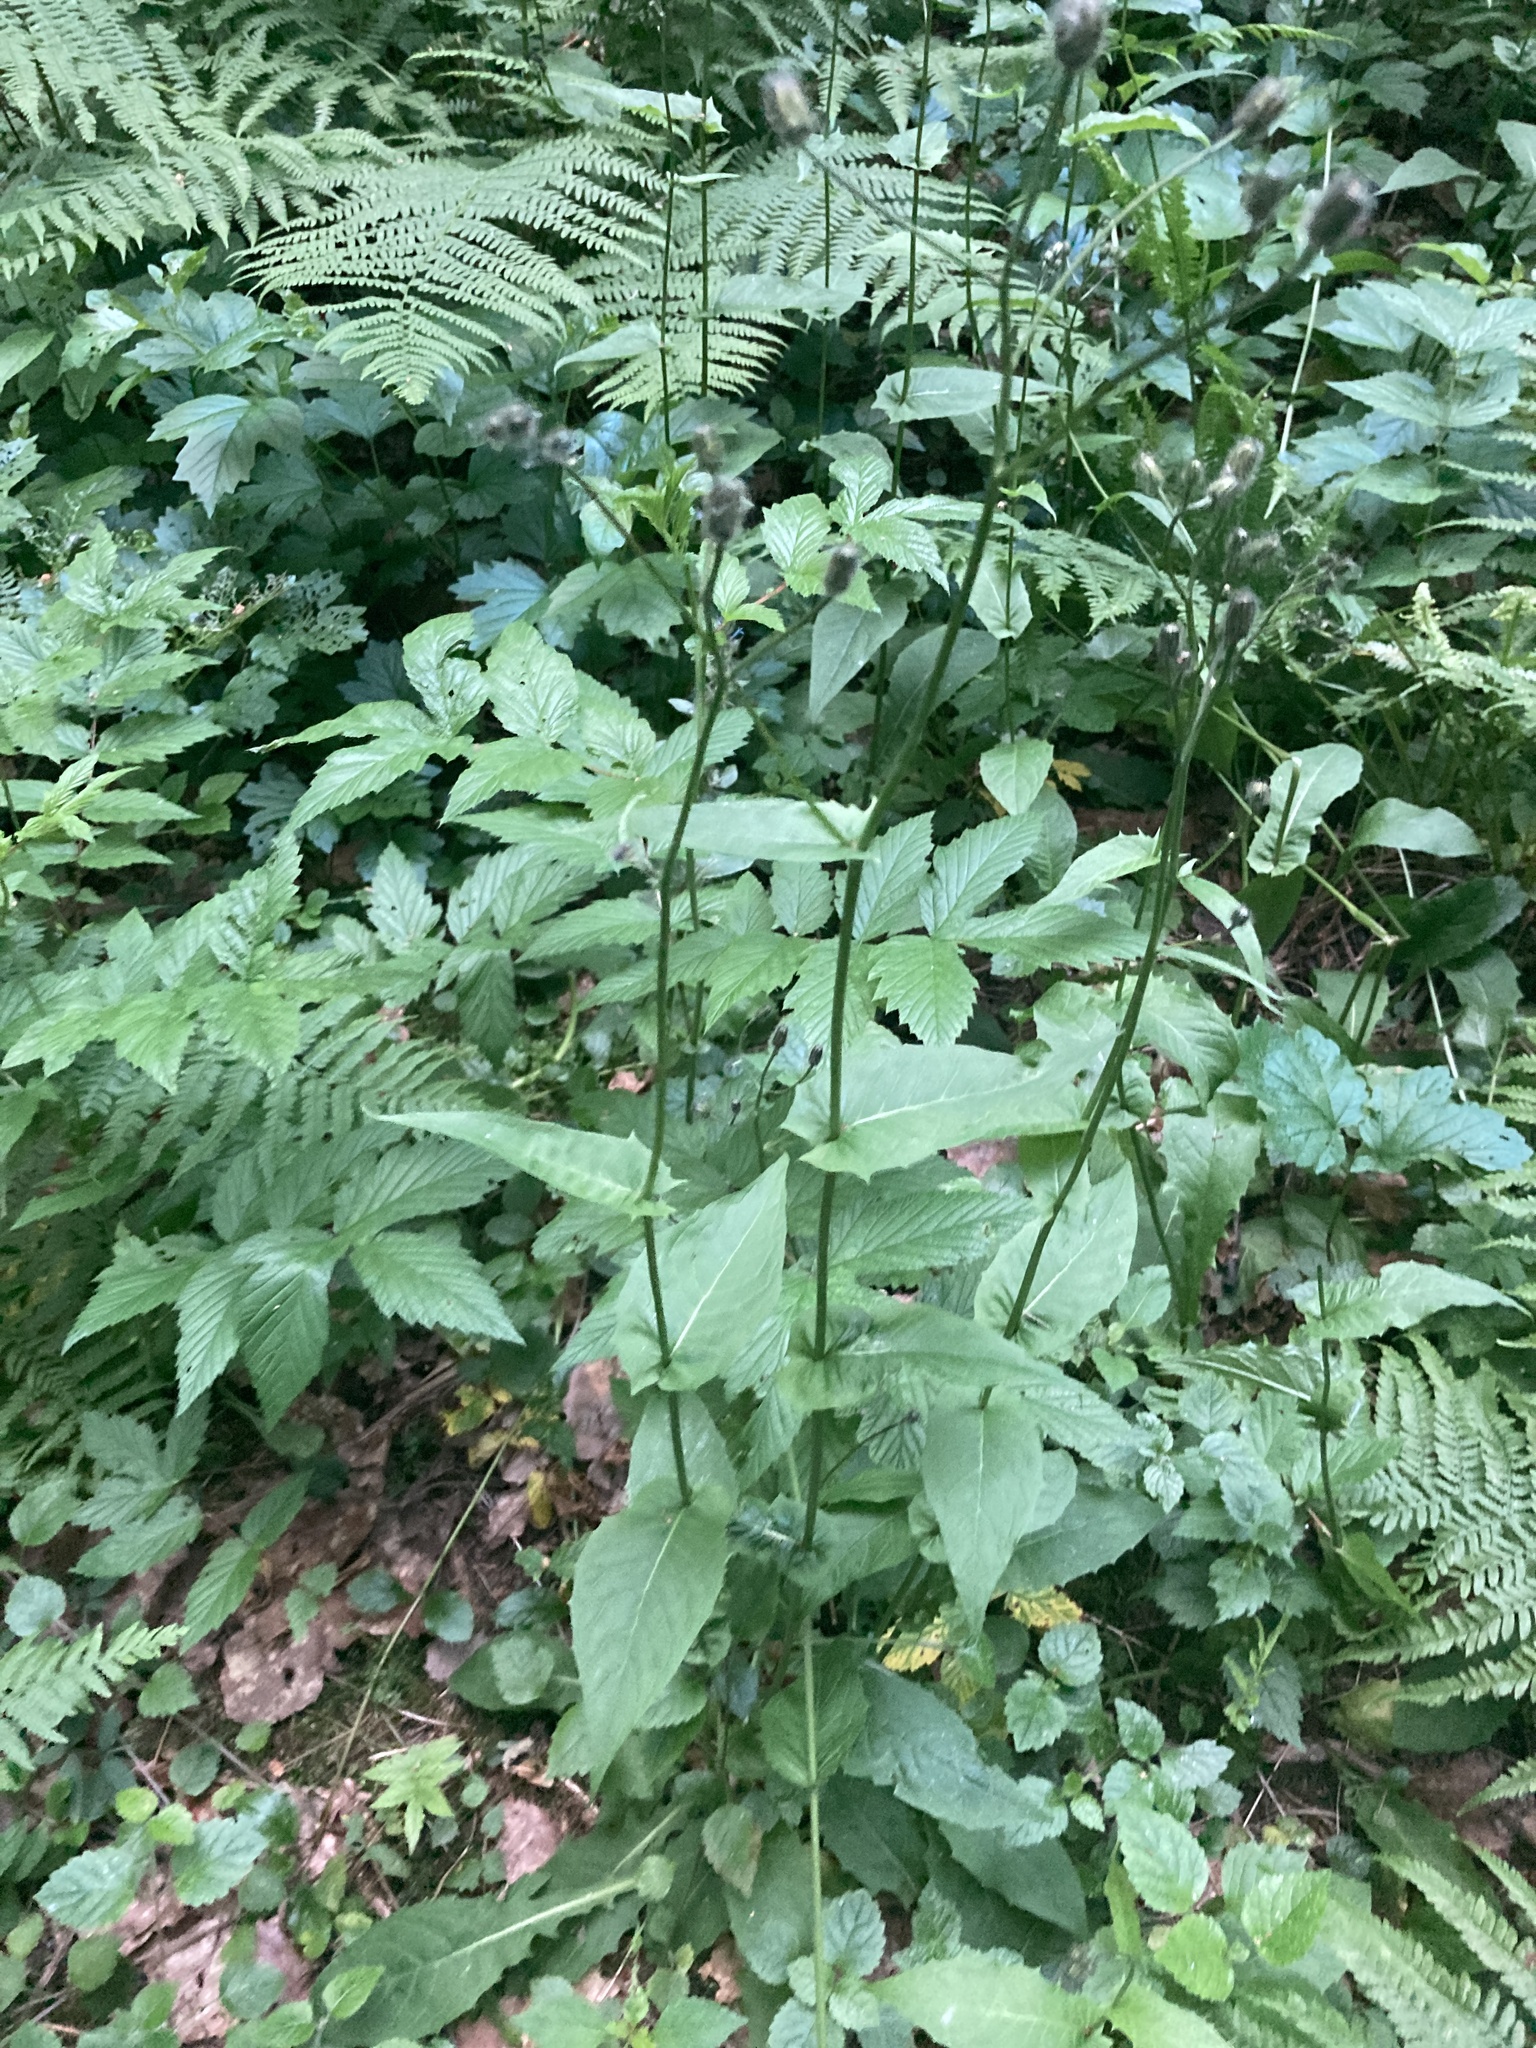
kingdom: Plantae
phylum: Tracheophyta
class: Magnoliopsida
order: Asterales
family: Asteraceae
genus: Crepis
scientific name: Crepis paludosa
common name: Marsh hawk's-beard
